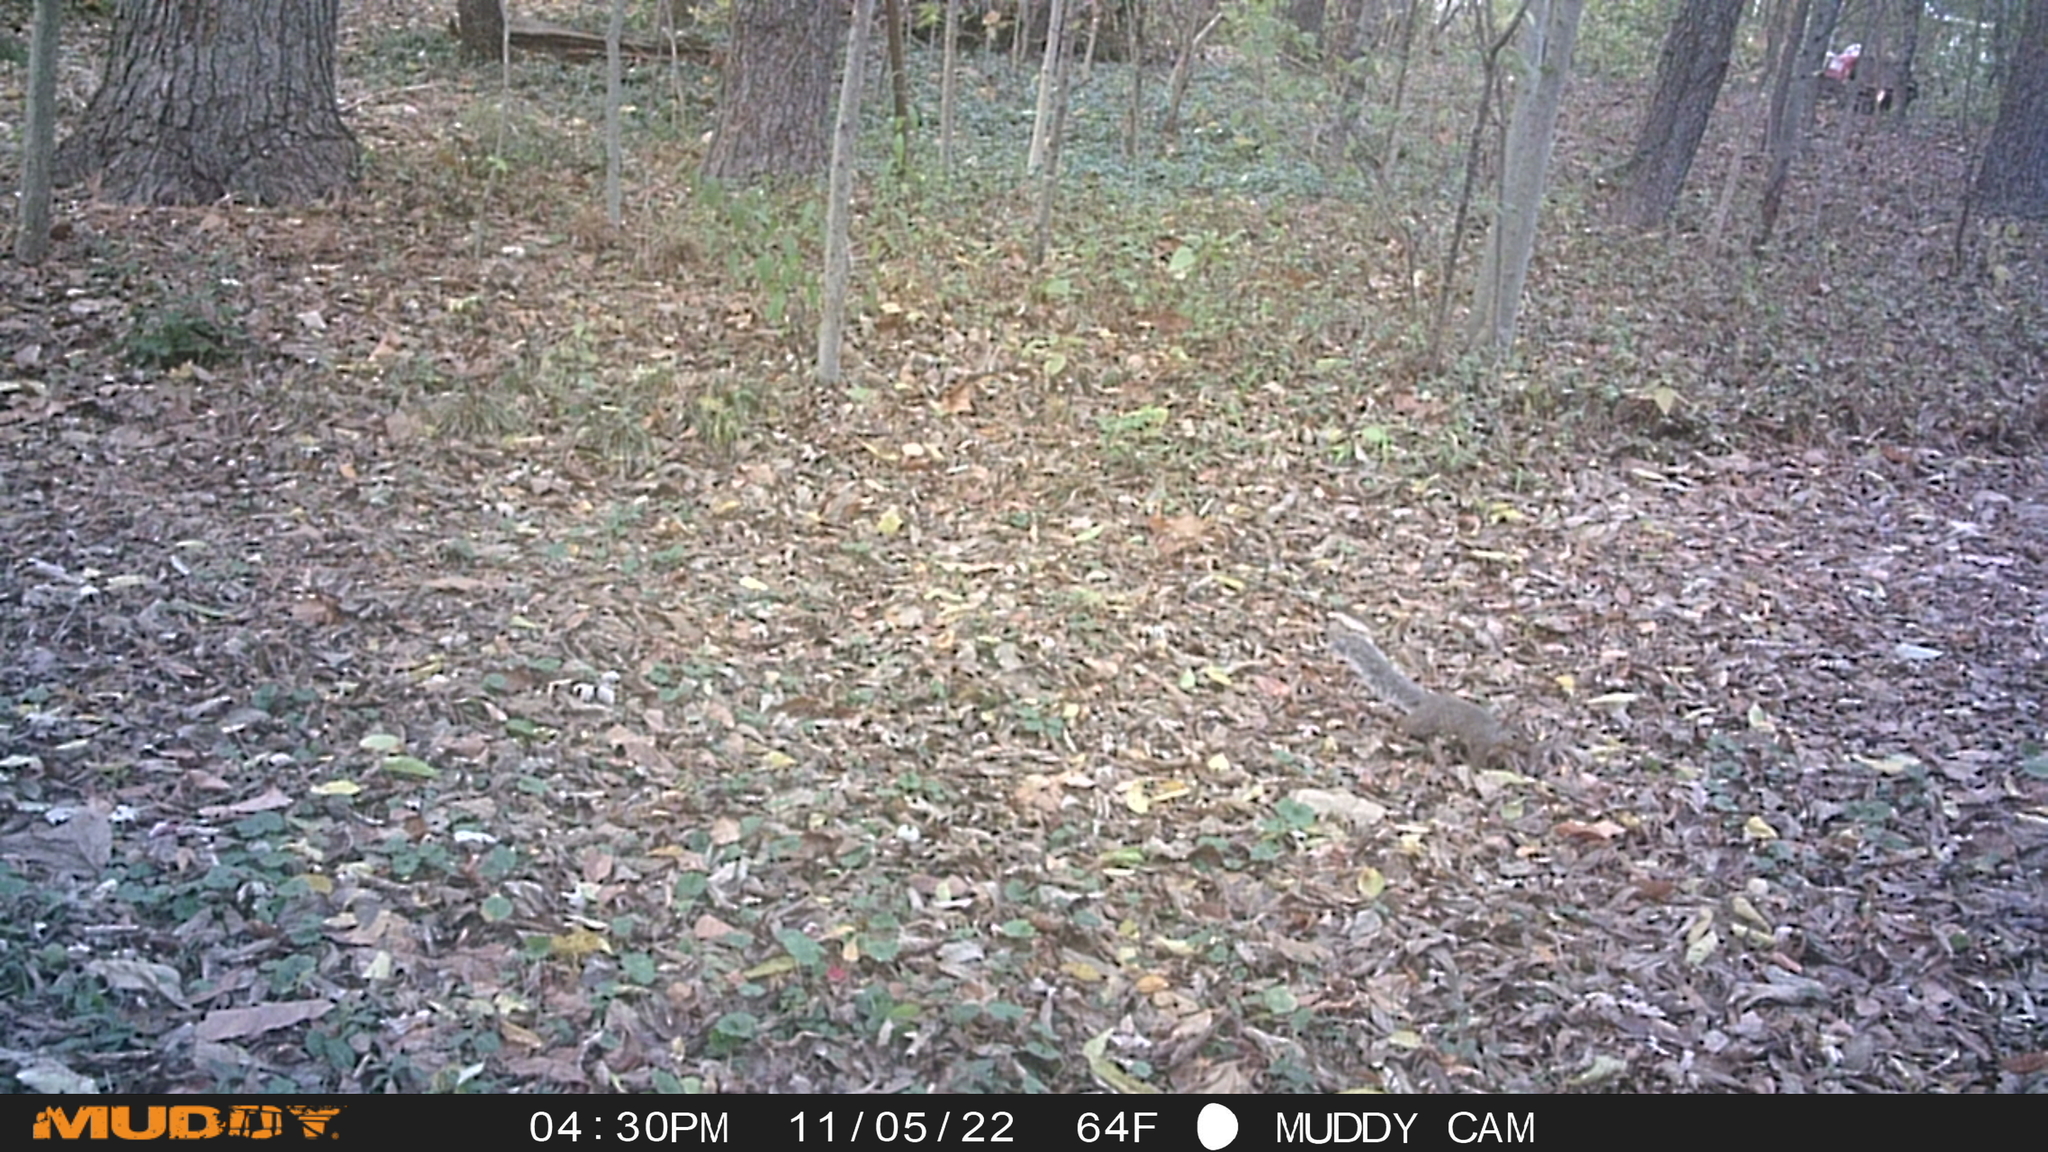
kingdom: Animalia
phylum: Chordata
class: Mammalia
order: Rodentia
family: Sciuridae
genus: Sciurus
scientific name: Sciurus carolinensis
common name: Eastern gray squirrel
